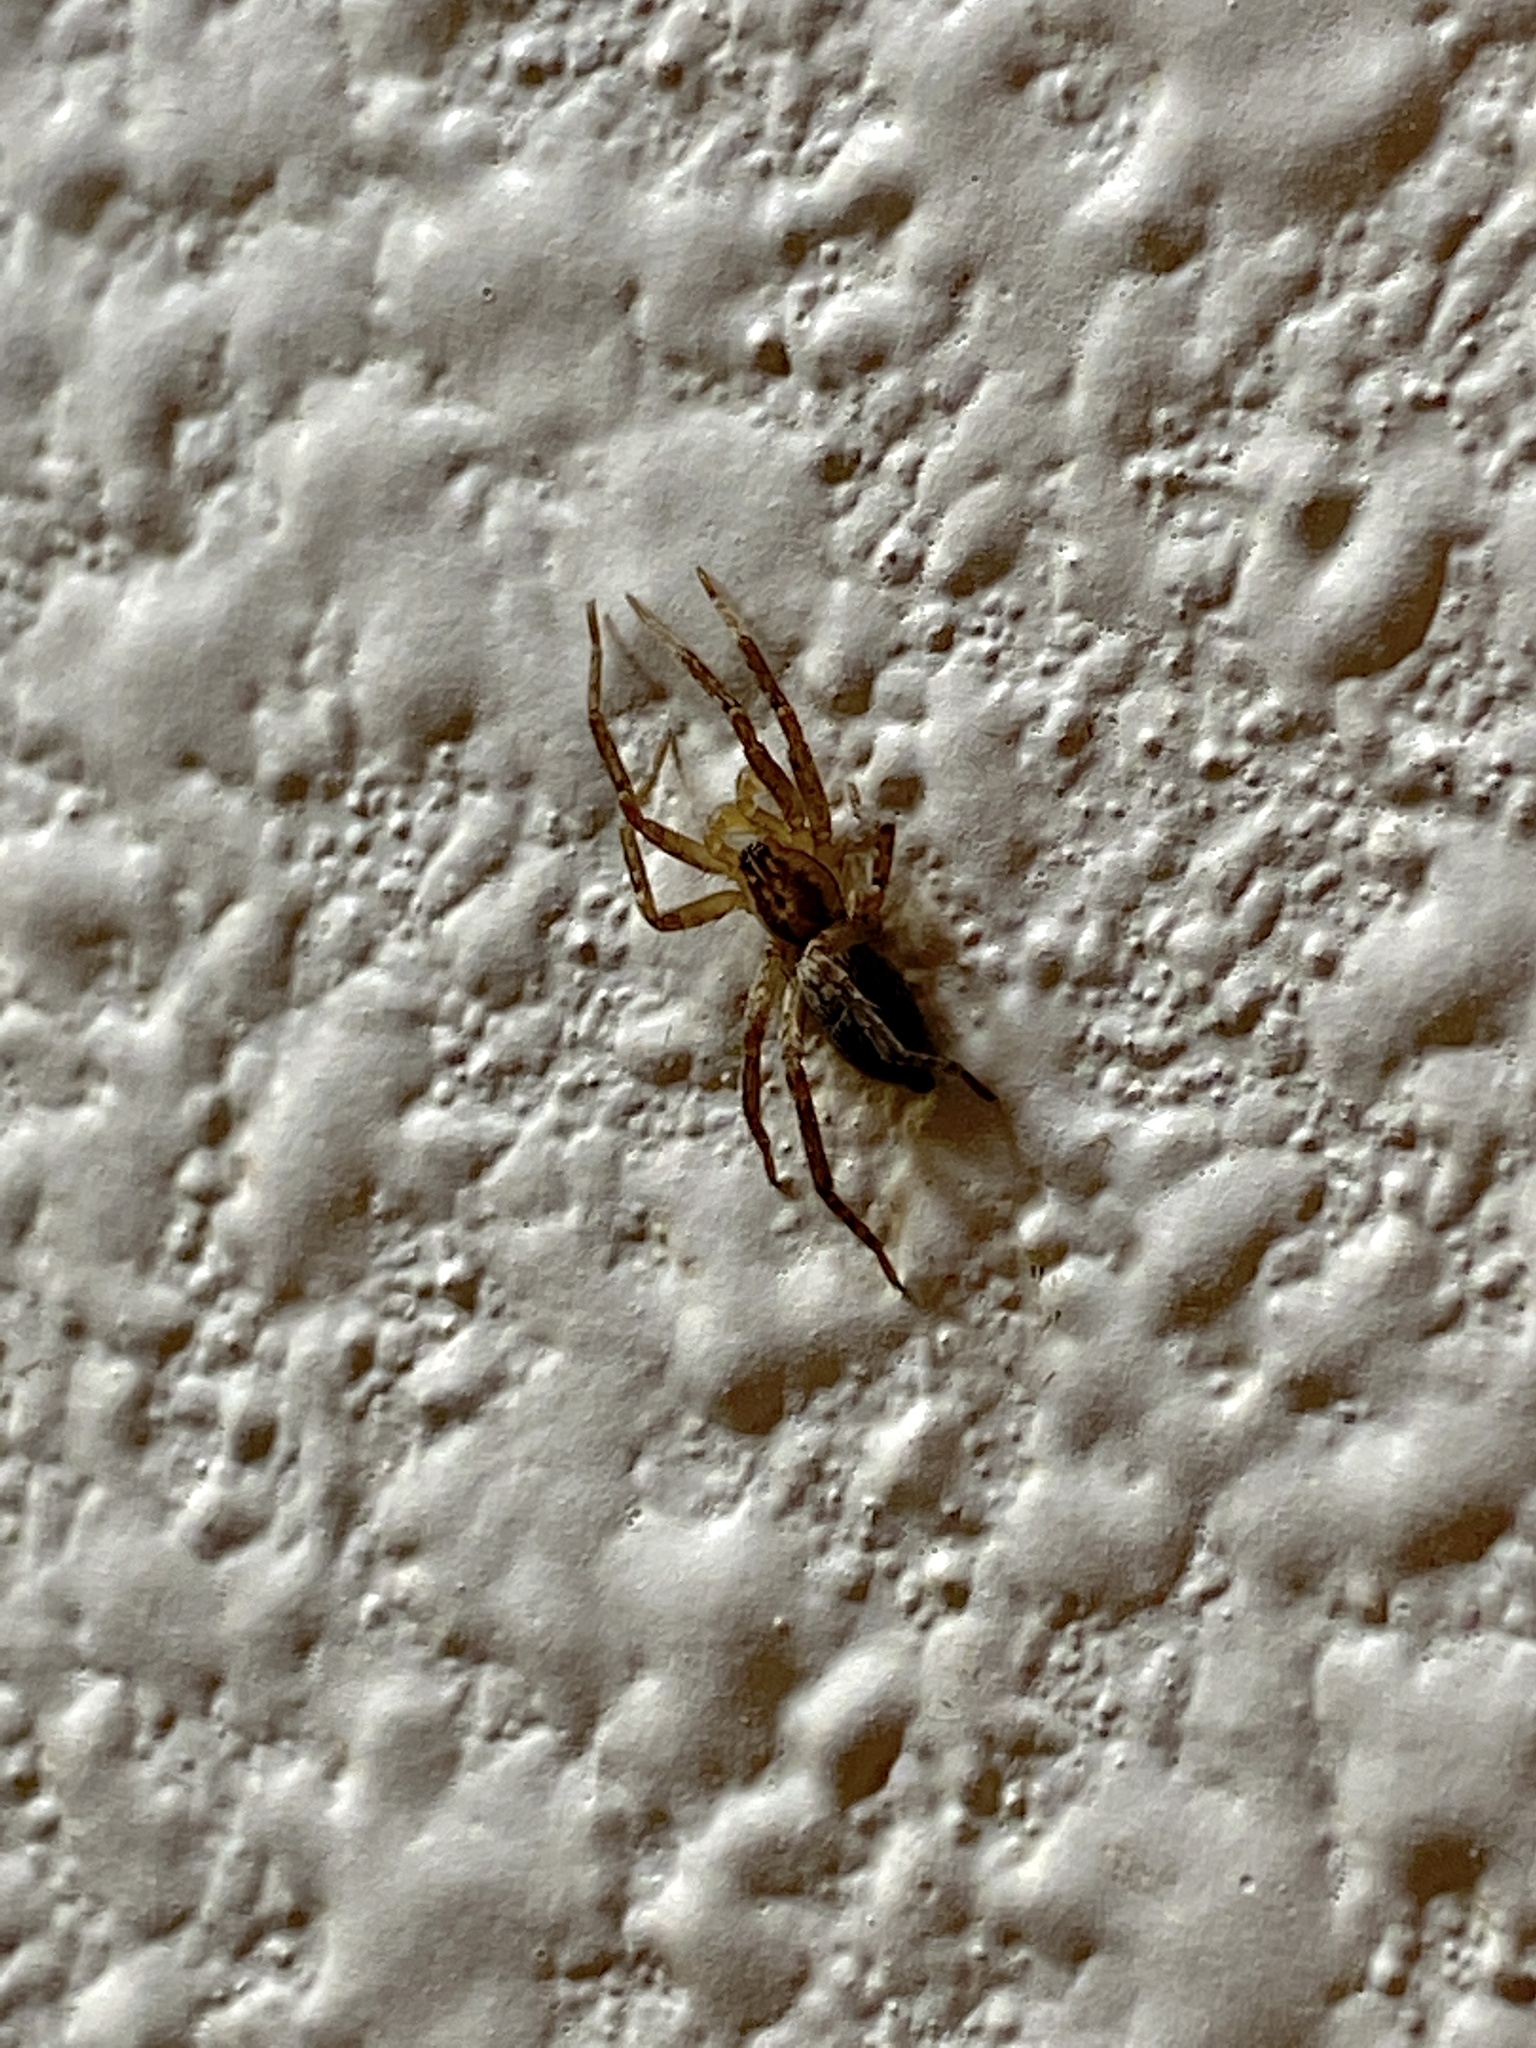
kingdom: Animalia
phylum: Arthropoda
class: Arachnida
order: Araneae
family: Anyphaenidae
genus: Anyphaena
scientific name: Anyphaena
